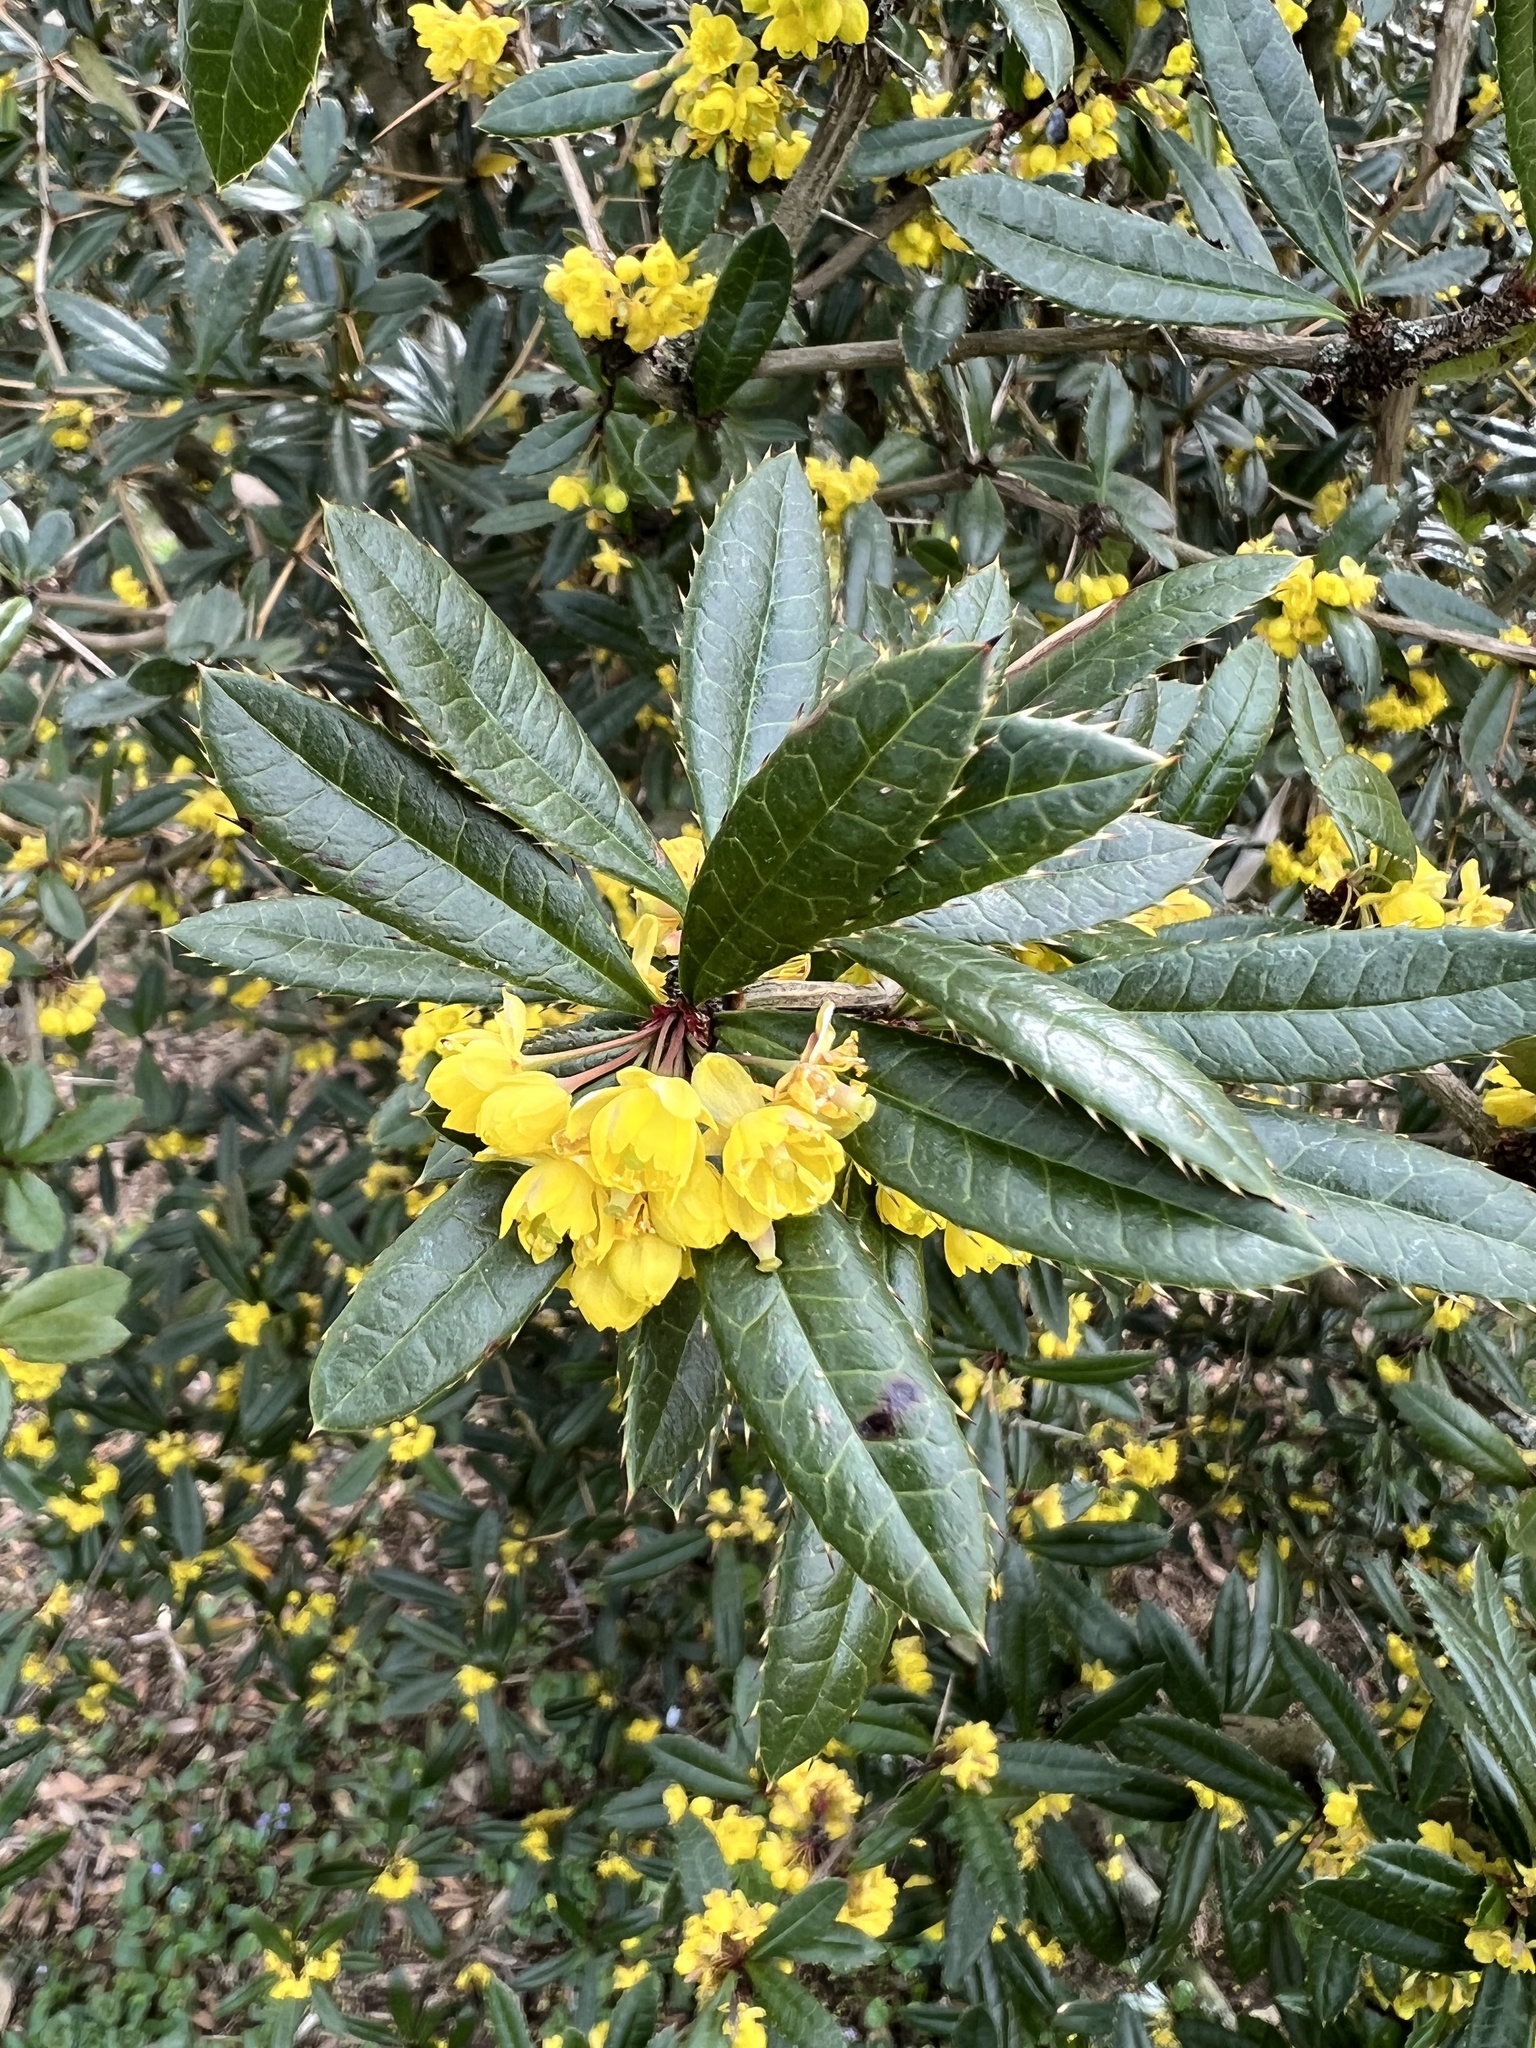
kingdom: Plantae
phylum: Tracheophyta
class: Magnoliopsida
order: Ranunculales
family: Berberidaceae
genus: Berberis
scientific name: Berberis julianae
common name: Wintergreen barberry
